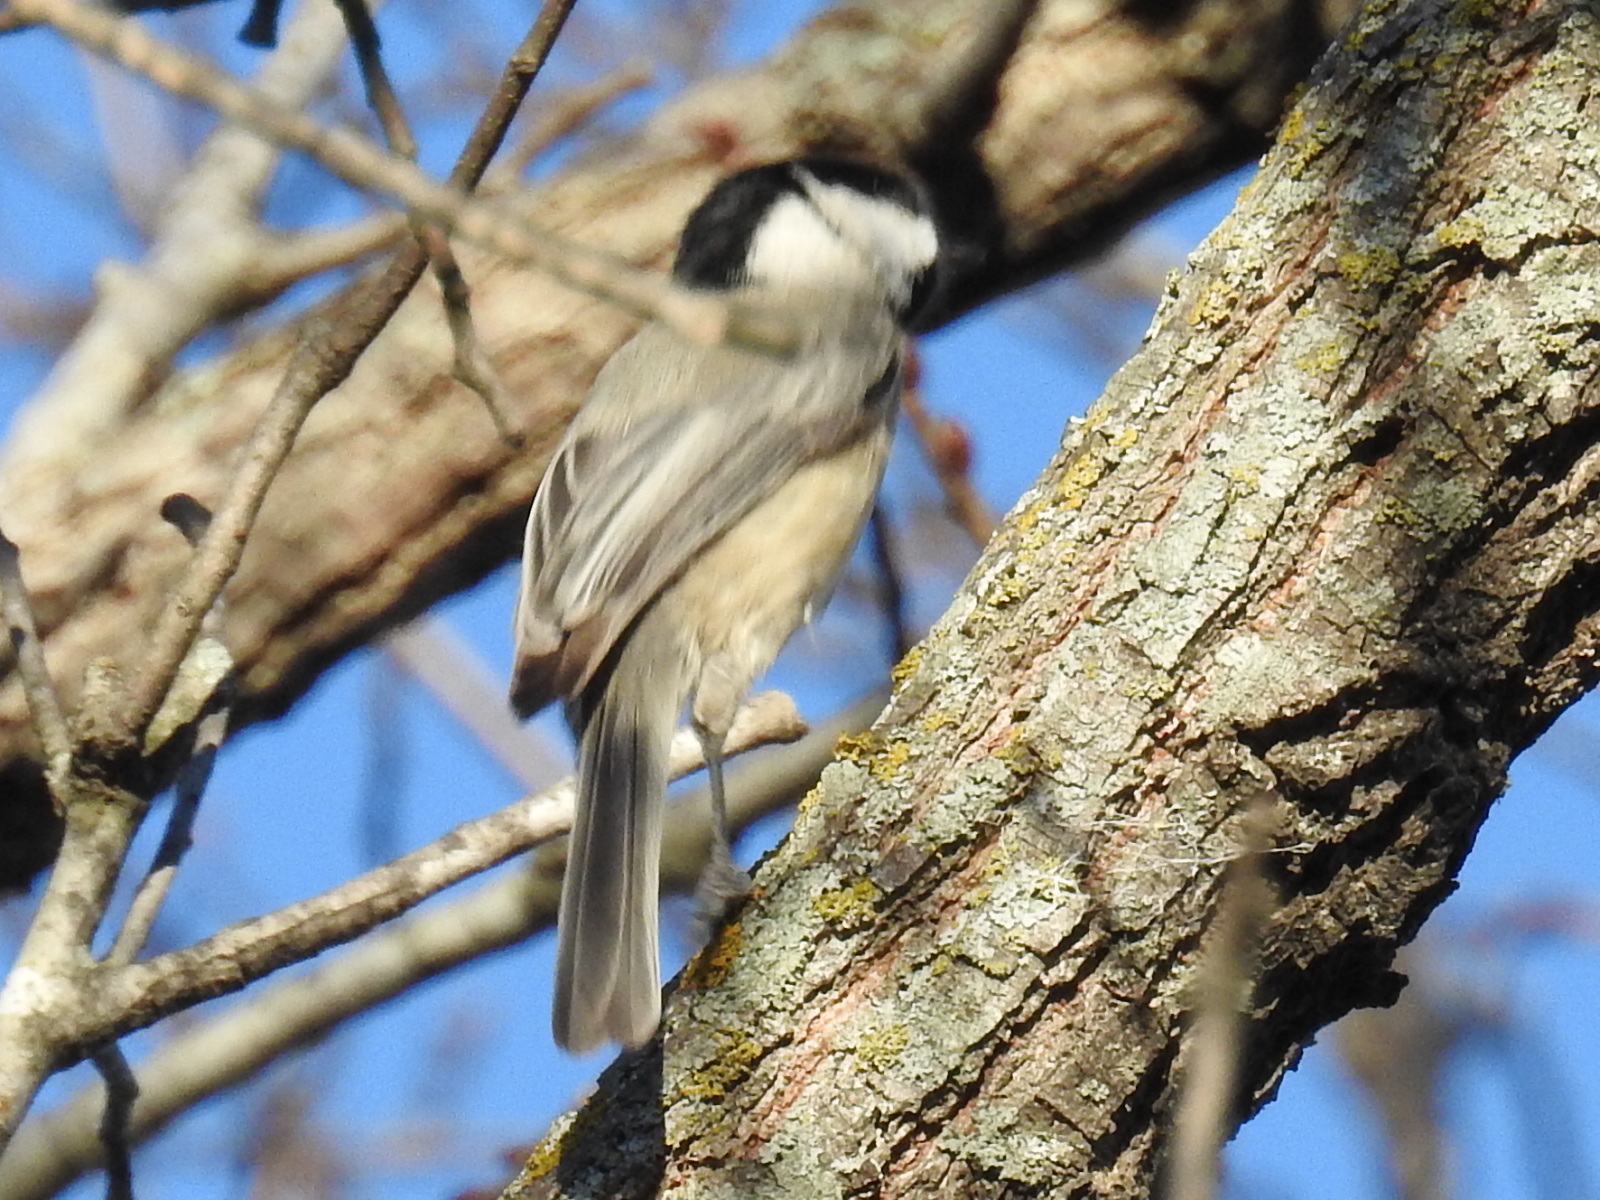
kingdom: Animalia
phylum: Chordata
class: Aves
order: Passeriformes
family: Paridae
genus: Poecile
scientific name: Poecile carolinensis
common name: Carolina chickadee
